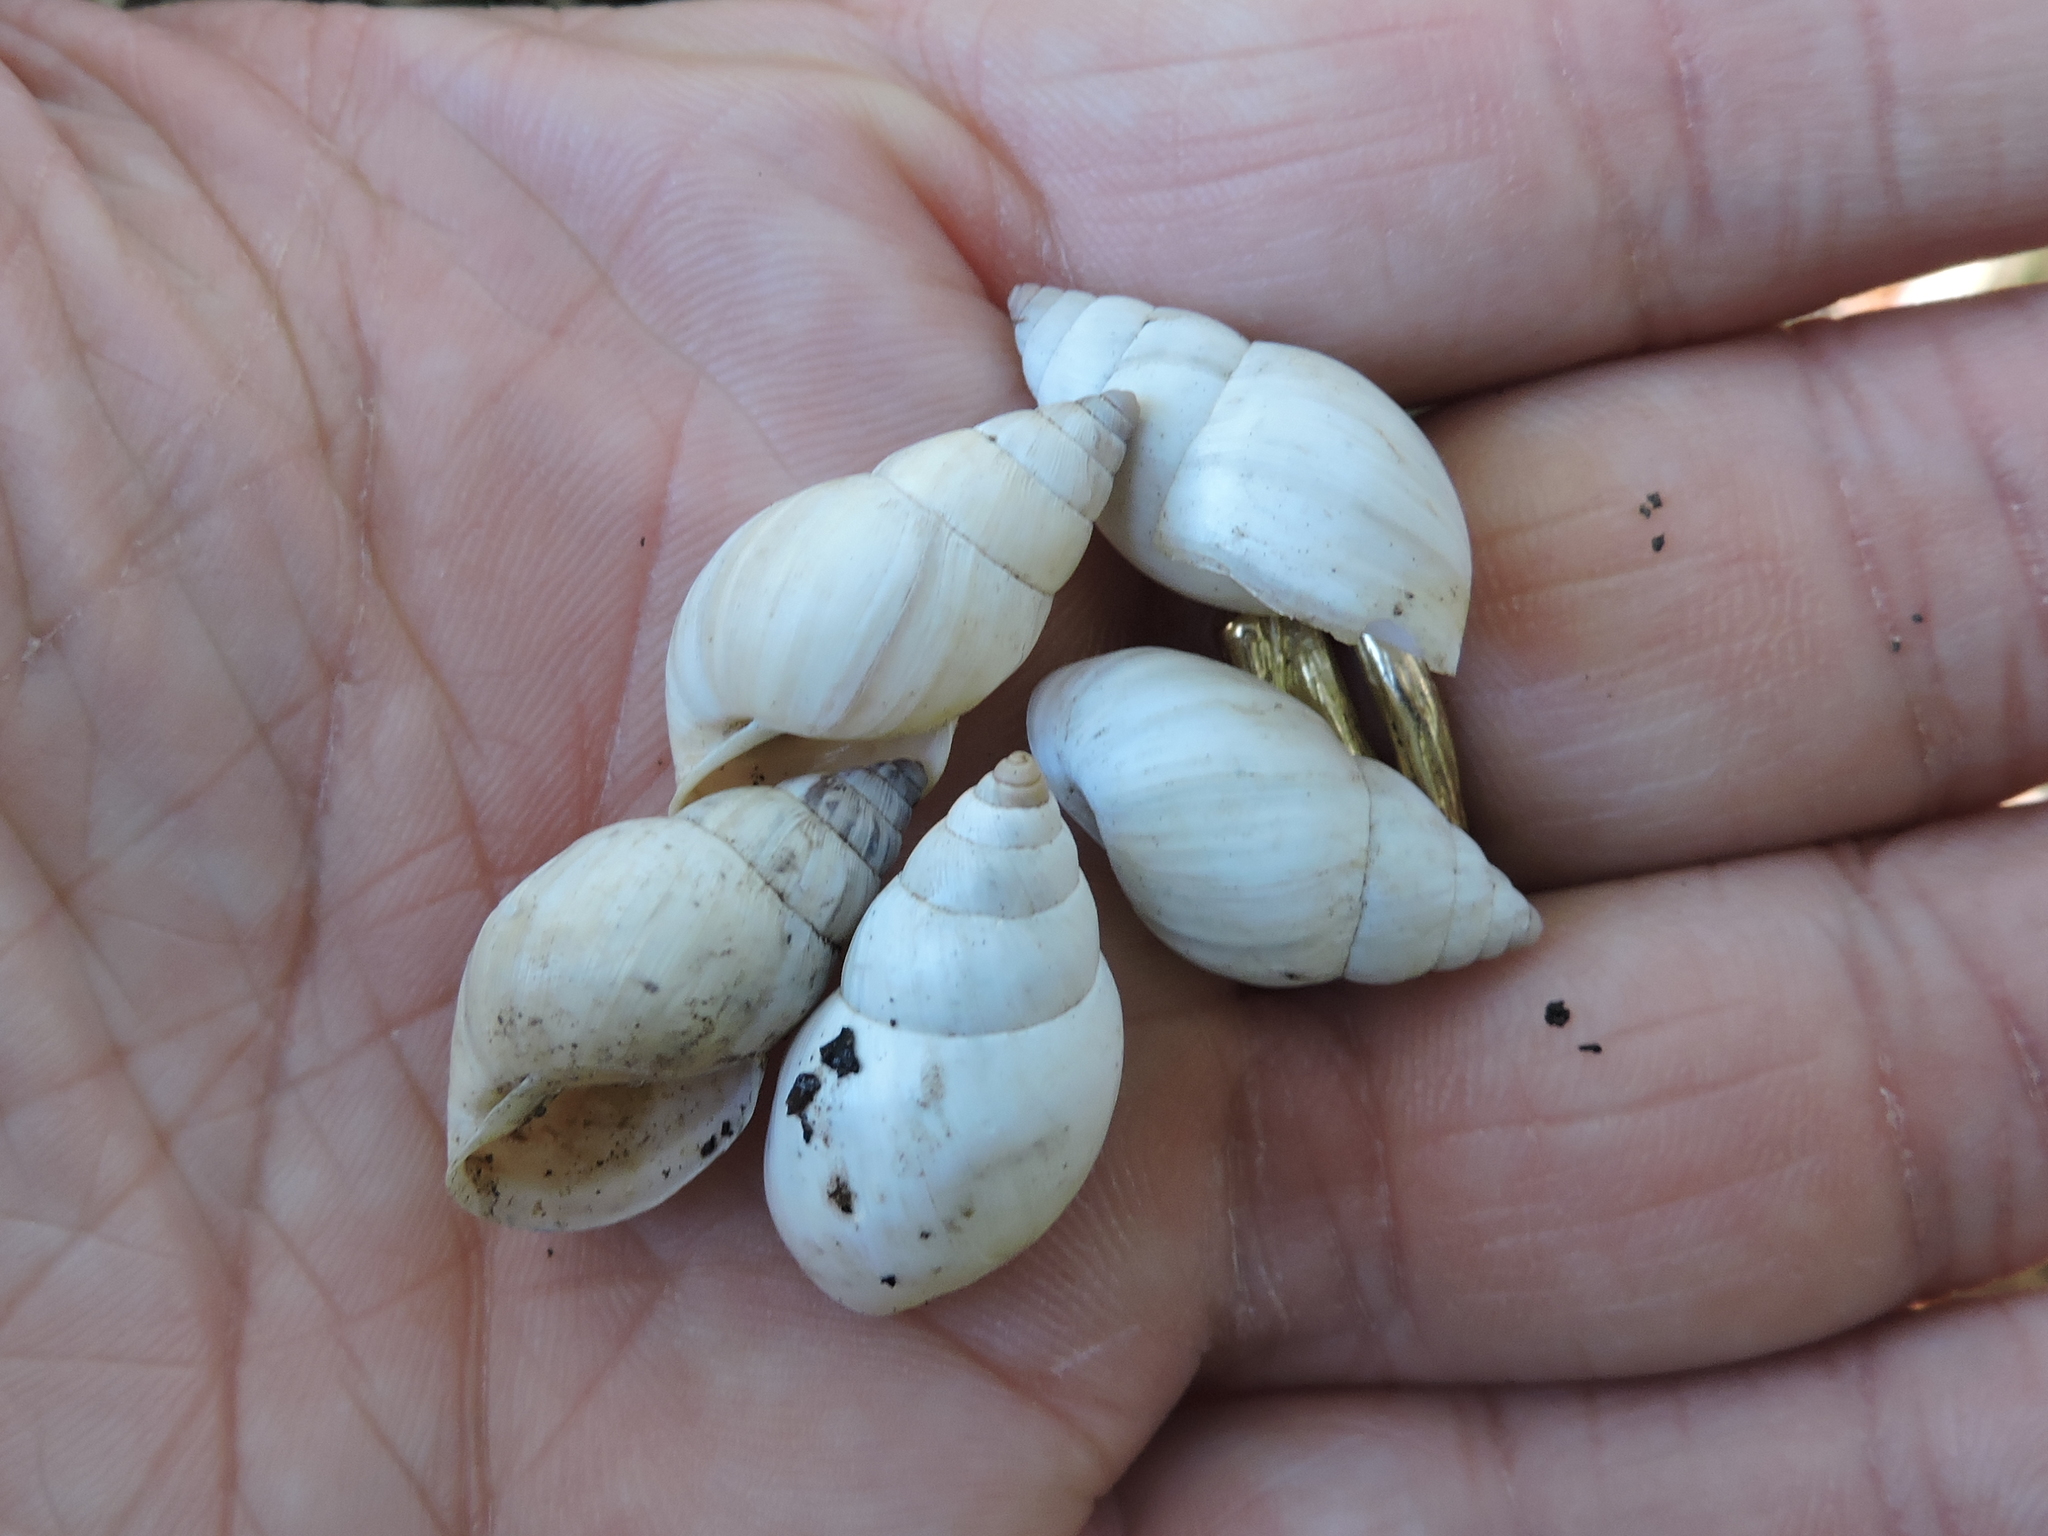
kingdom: Animalia
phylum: Mollusca
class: Gastropoda
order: Stylommatophora
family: Bulimulidae
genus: Rabdotus
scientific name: Rabdotus dealbatus
